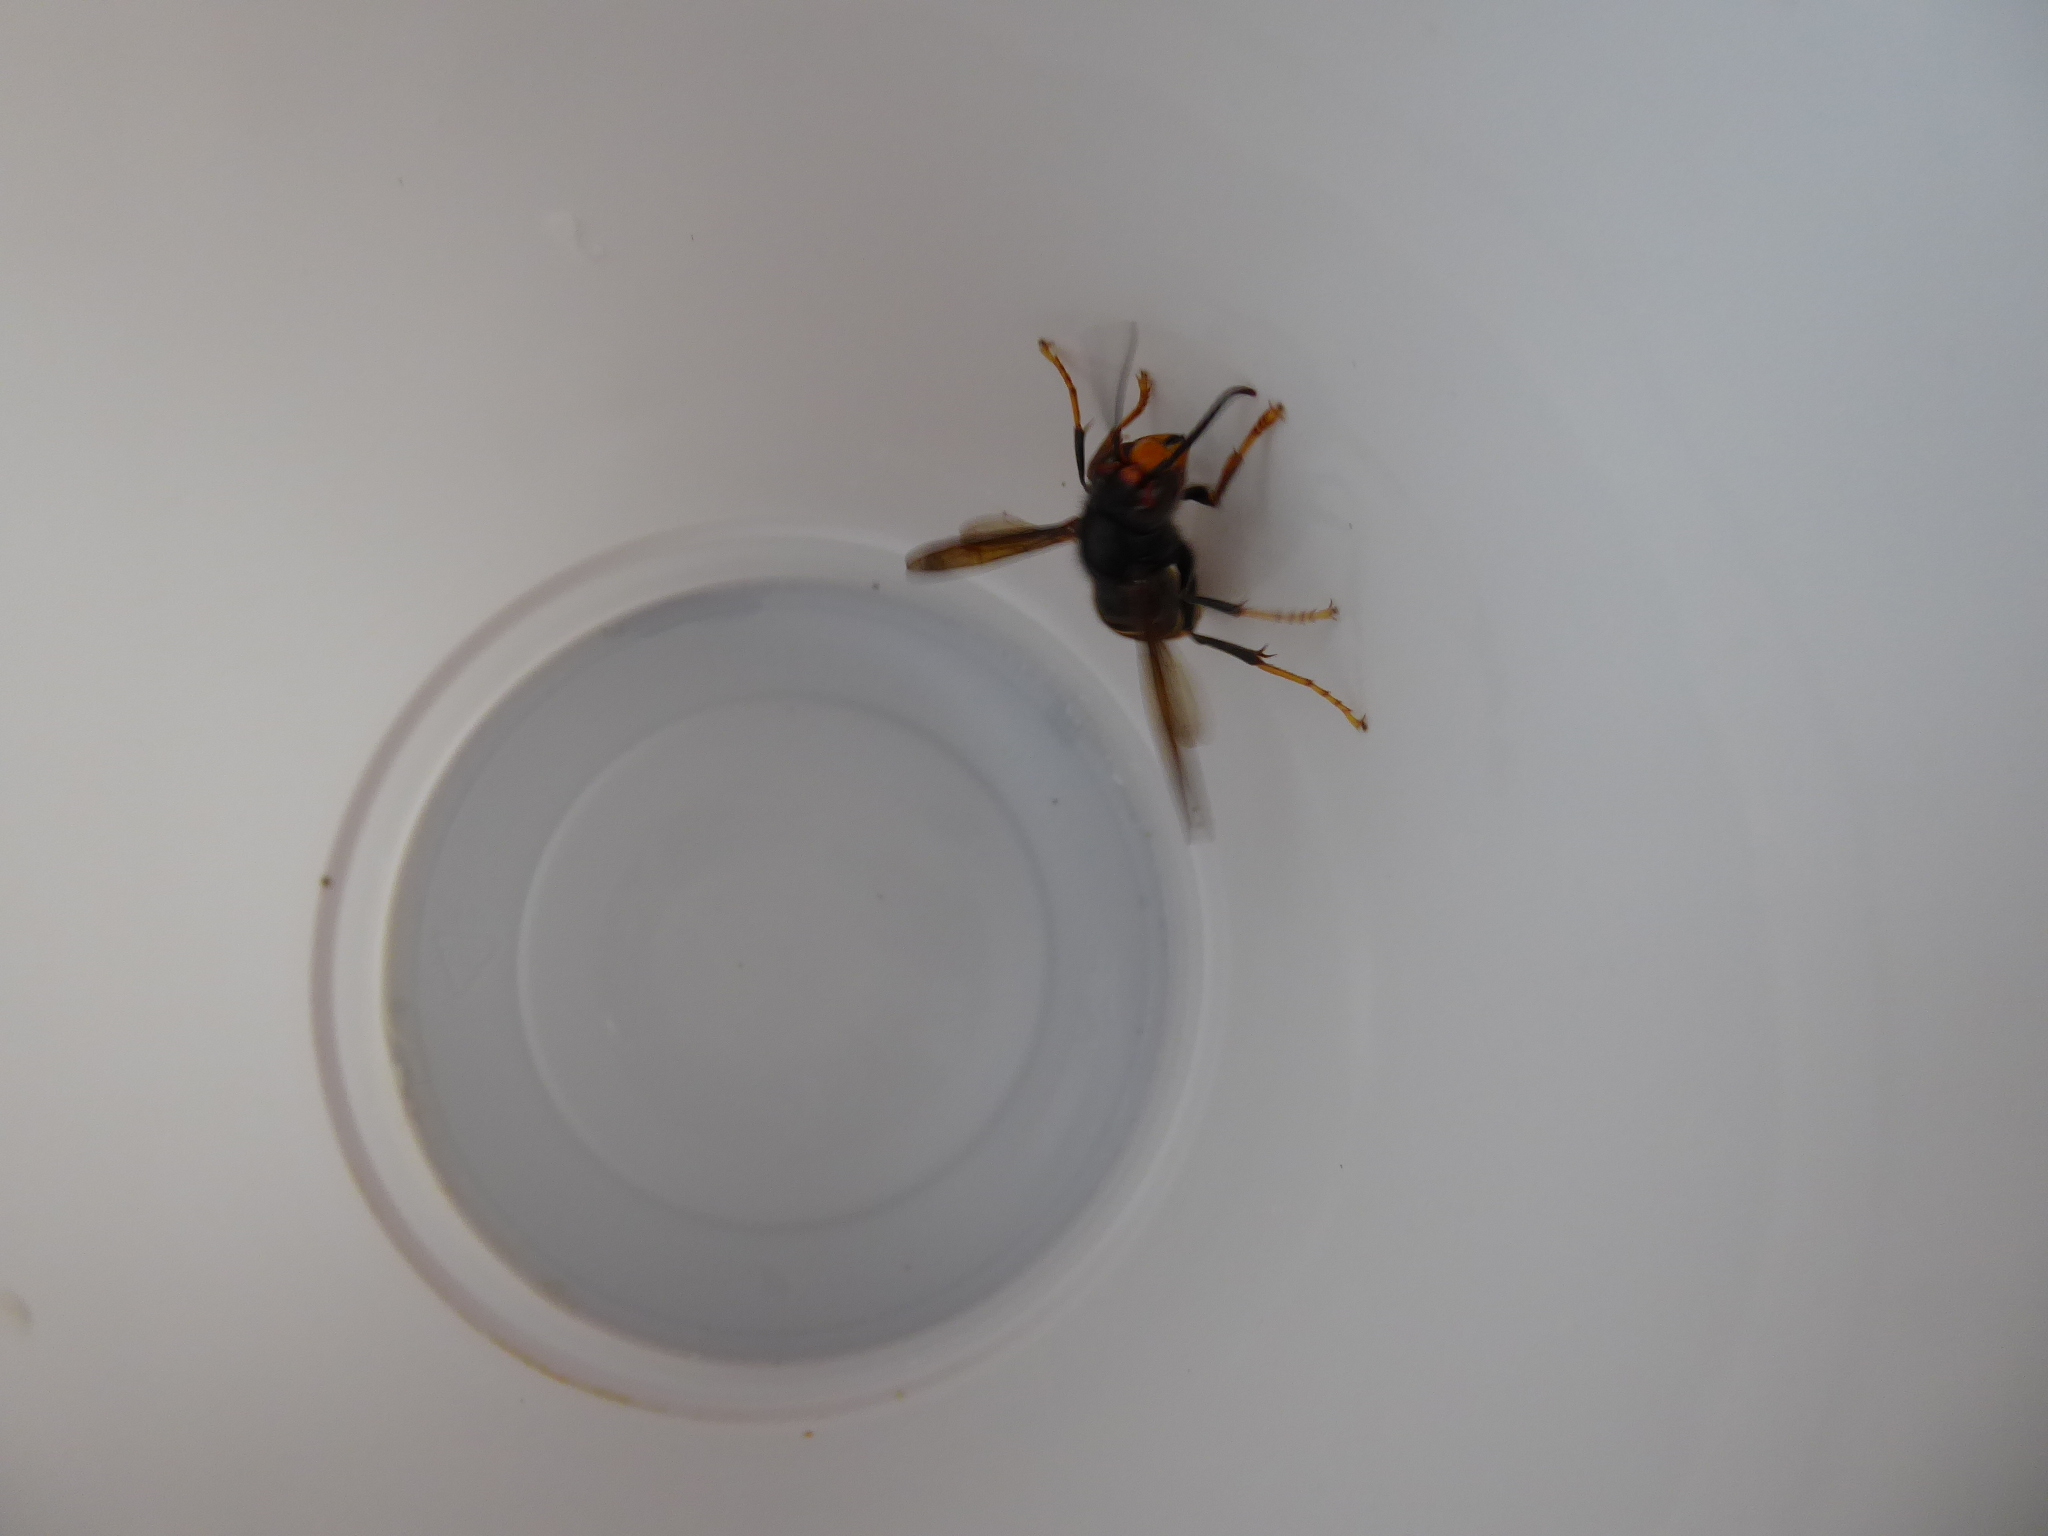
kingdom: Animalia
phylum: Arthropoda
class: Insecta
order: Hymenoptera
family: Vespidae
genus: Vespa
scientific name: Vespa velutina
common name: Asian hornet
